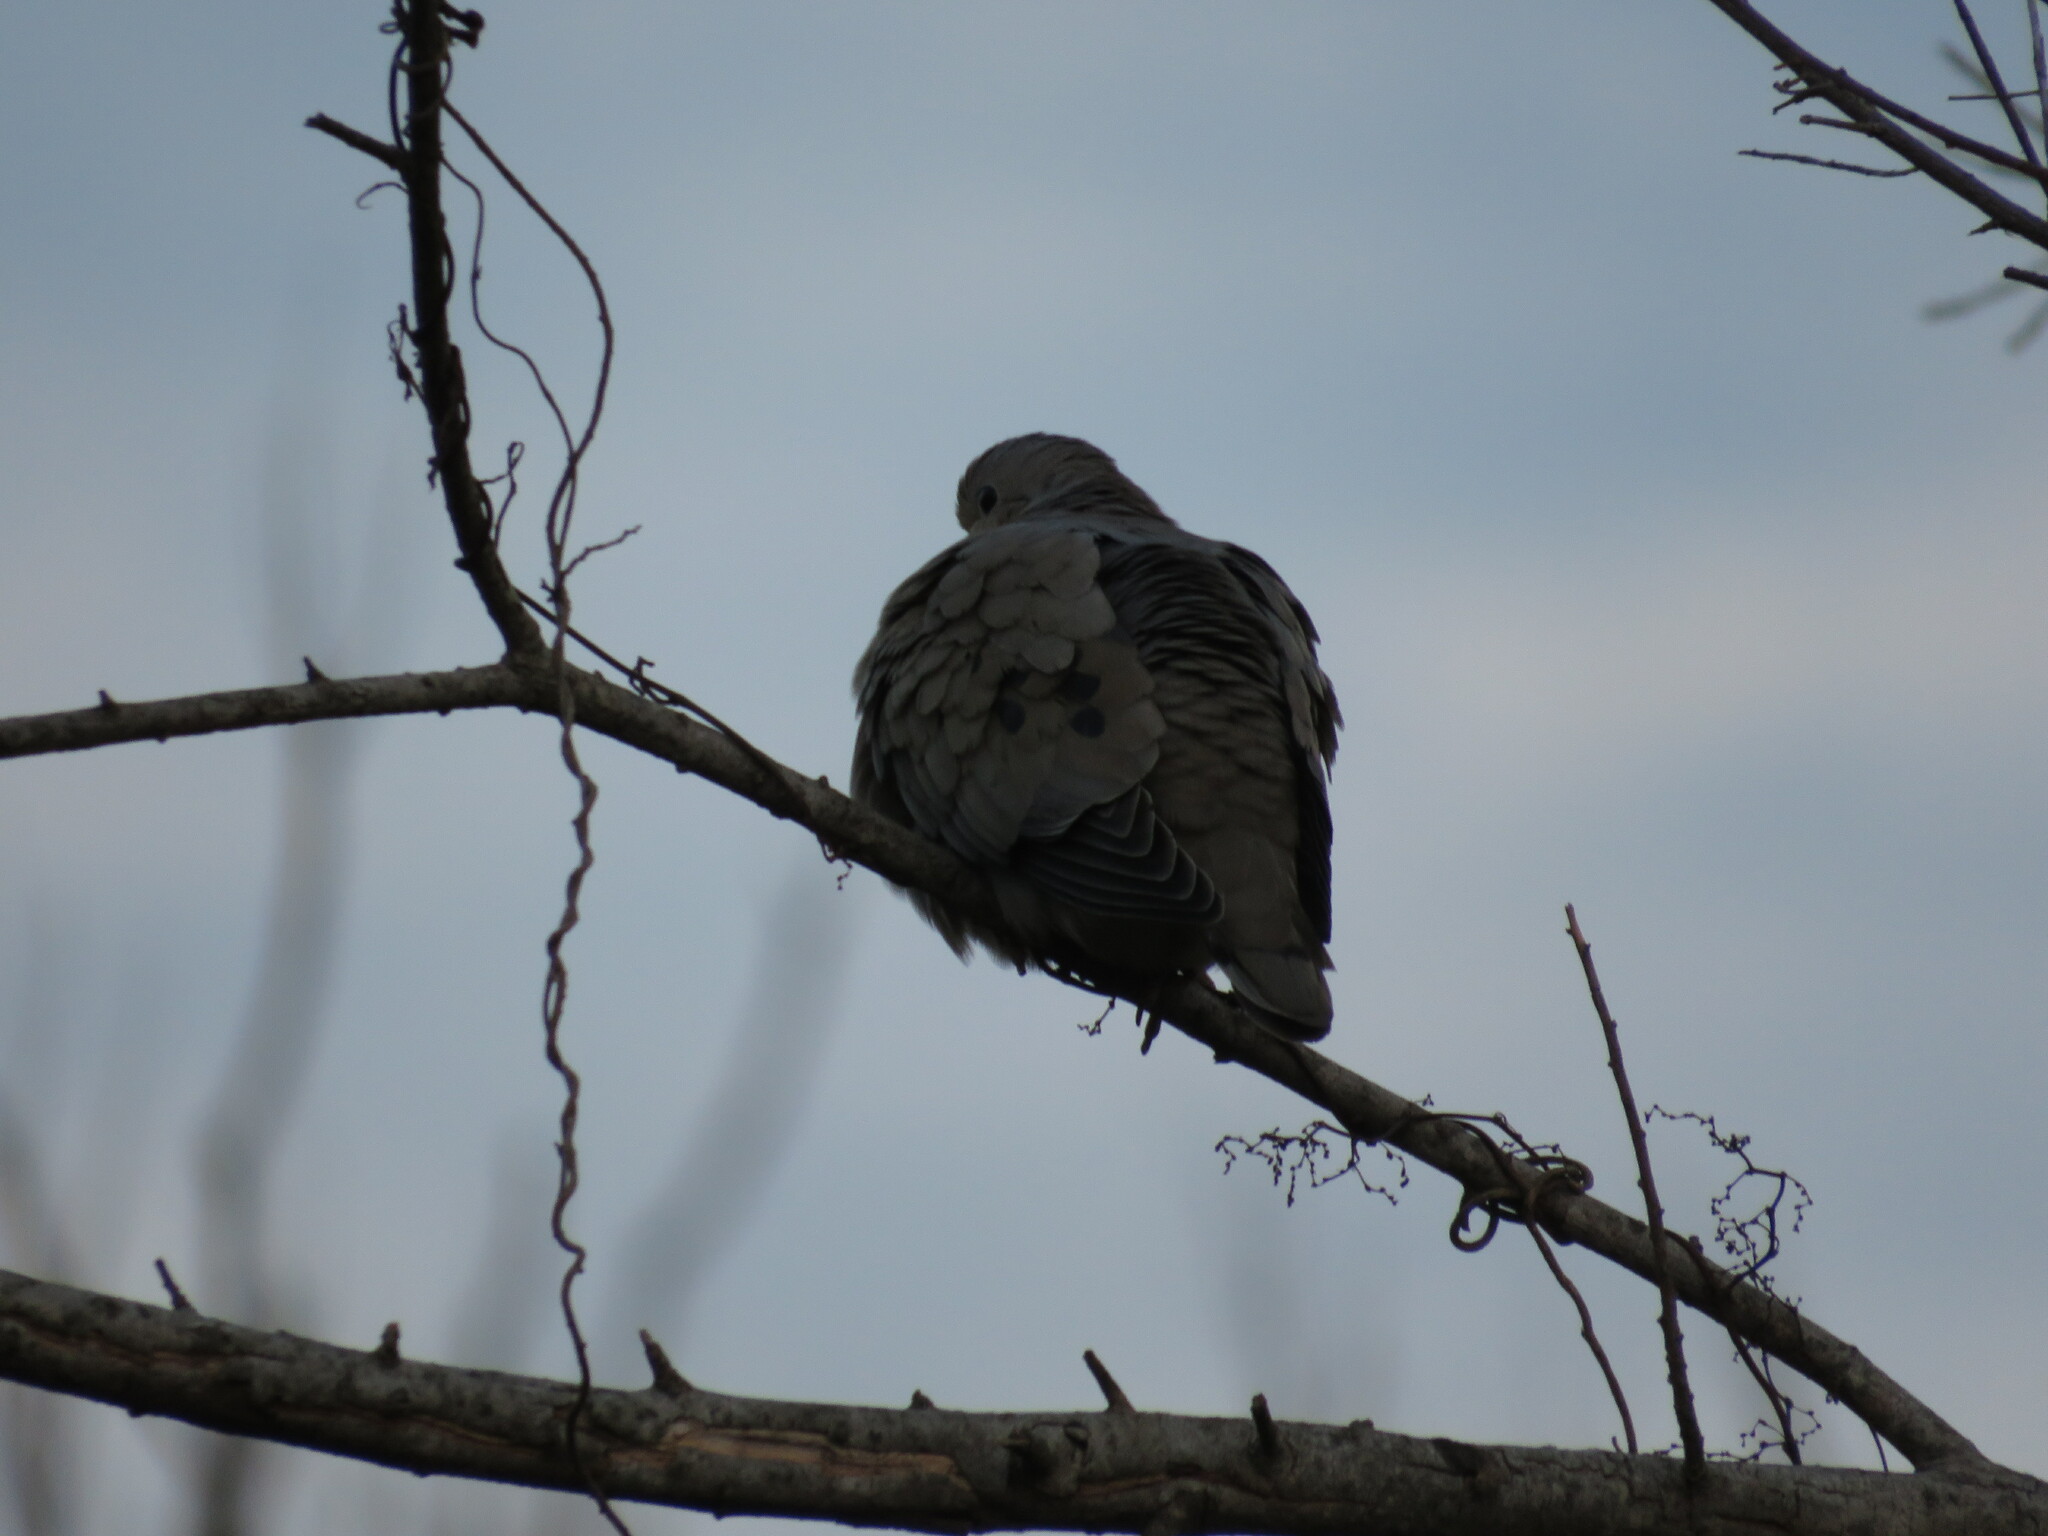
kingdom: Animalia
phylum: Chordata
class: Aves
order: Columbiformes
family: Columbidae
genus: Zenaida
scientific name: Zenaida auriculata
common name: Eared dove
